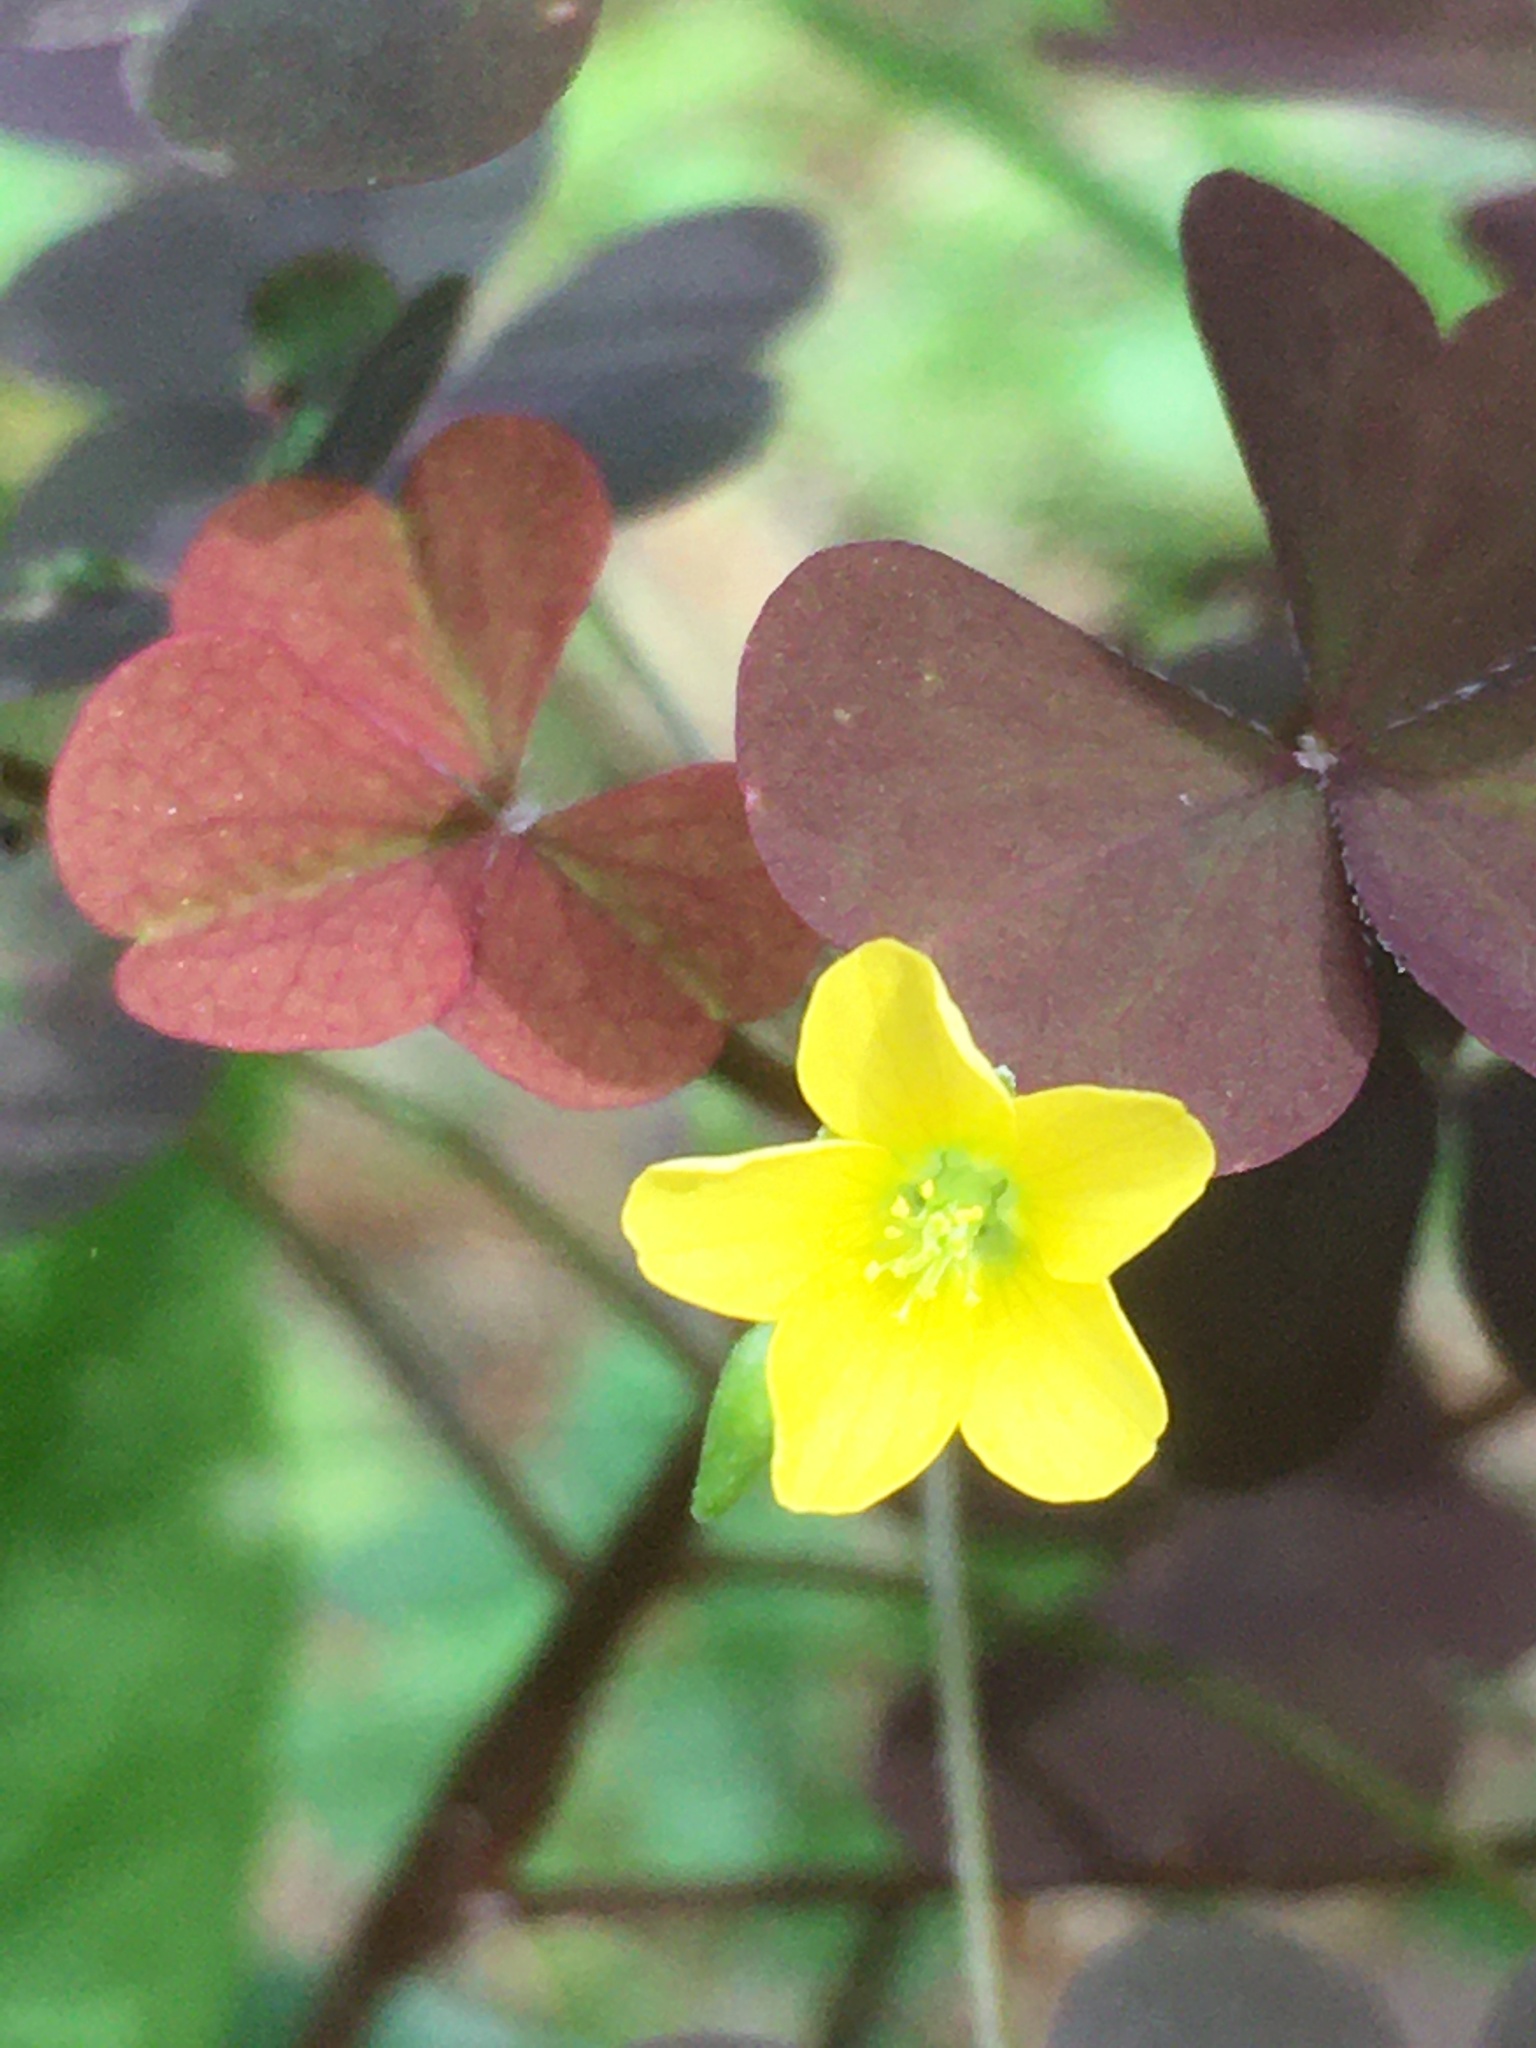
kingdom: Plantae
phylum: Tracheophyta
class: Magnoliopsida
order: Oxalidales
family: Oxalidaceae
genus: Oxalis
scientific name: Oxalis stricta
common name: Upright yellow-sorrel
